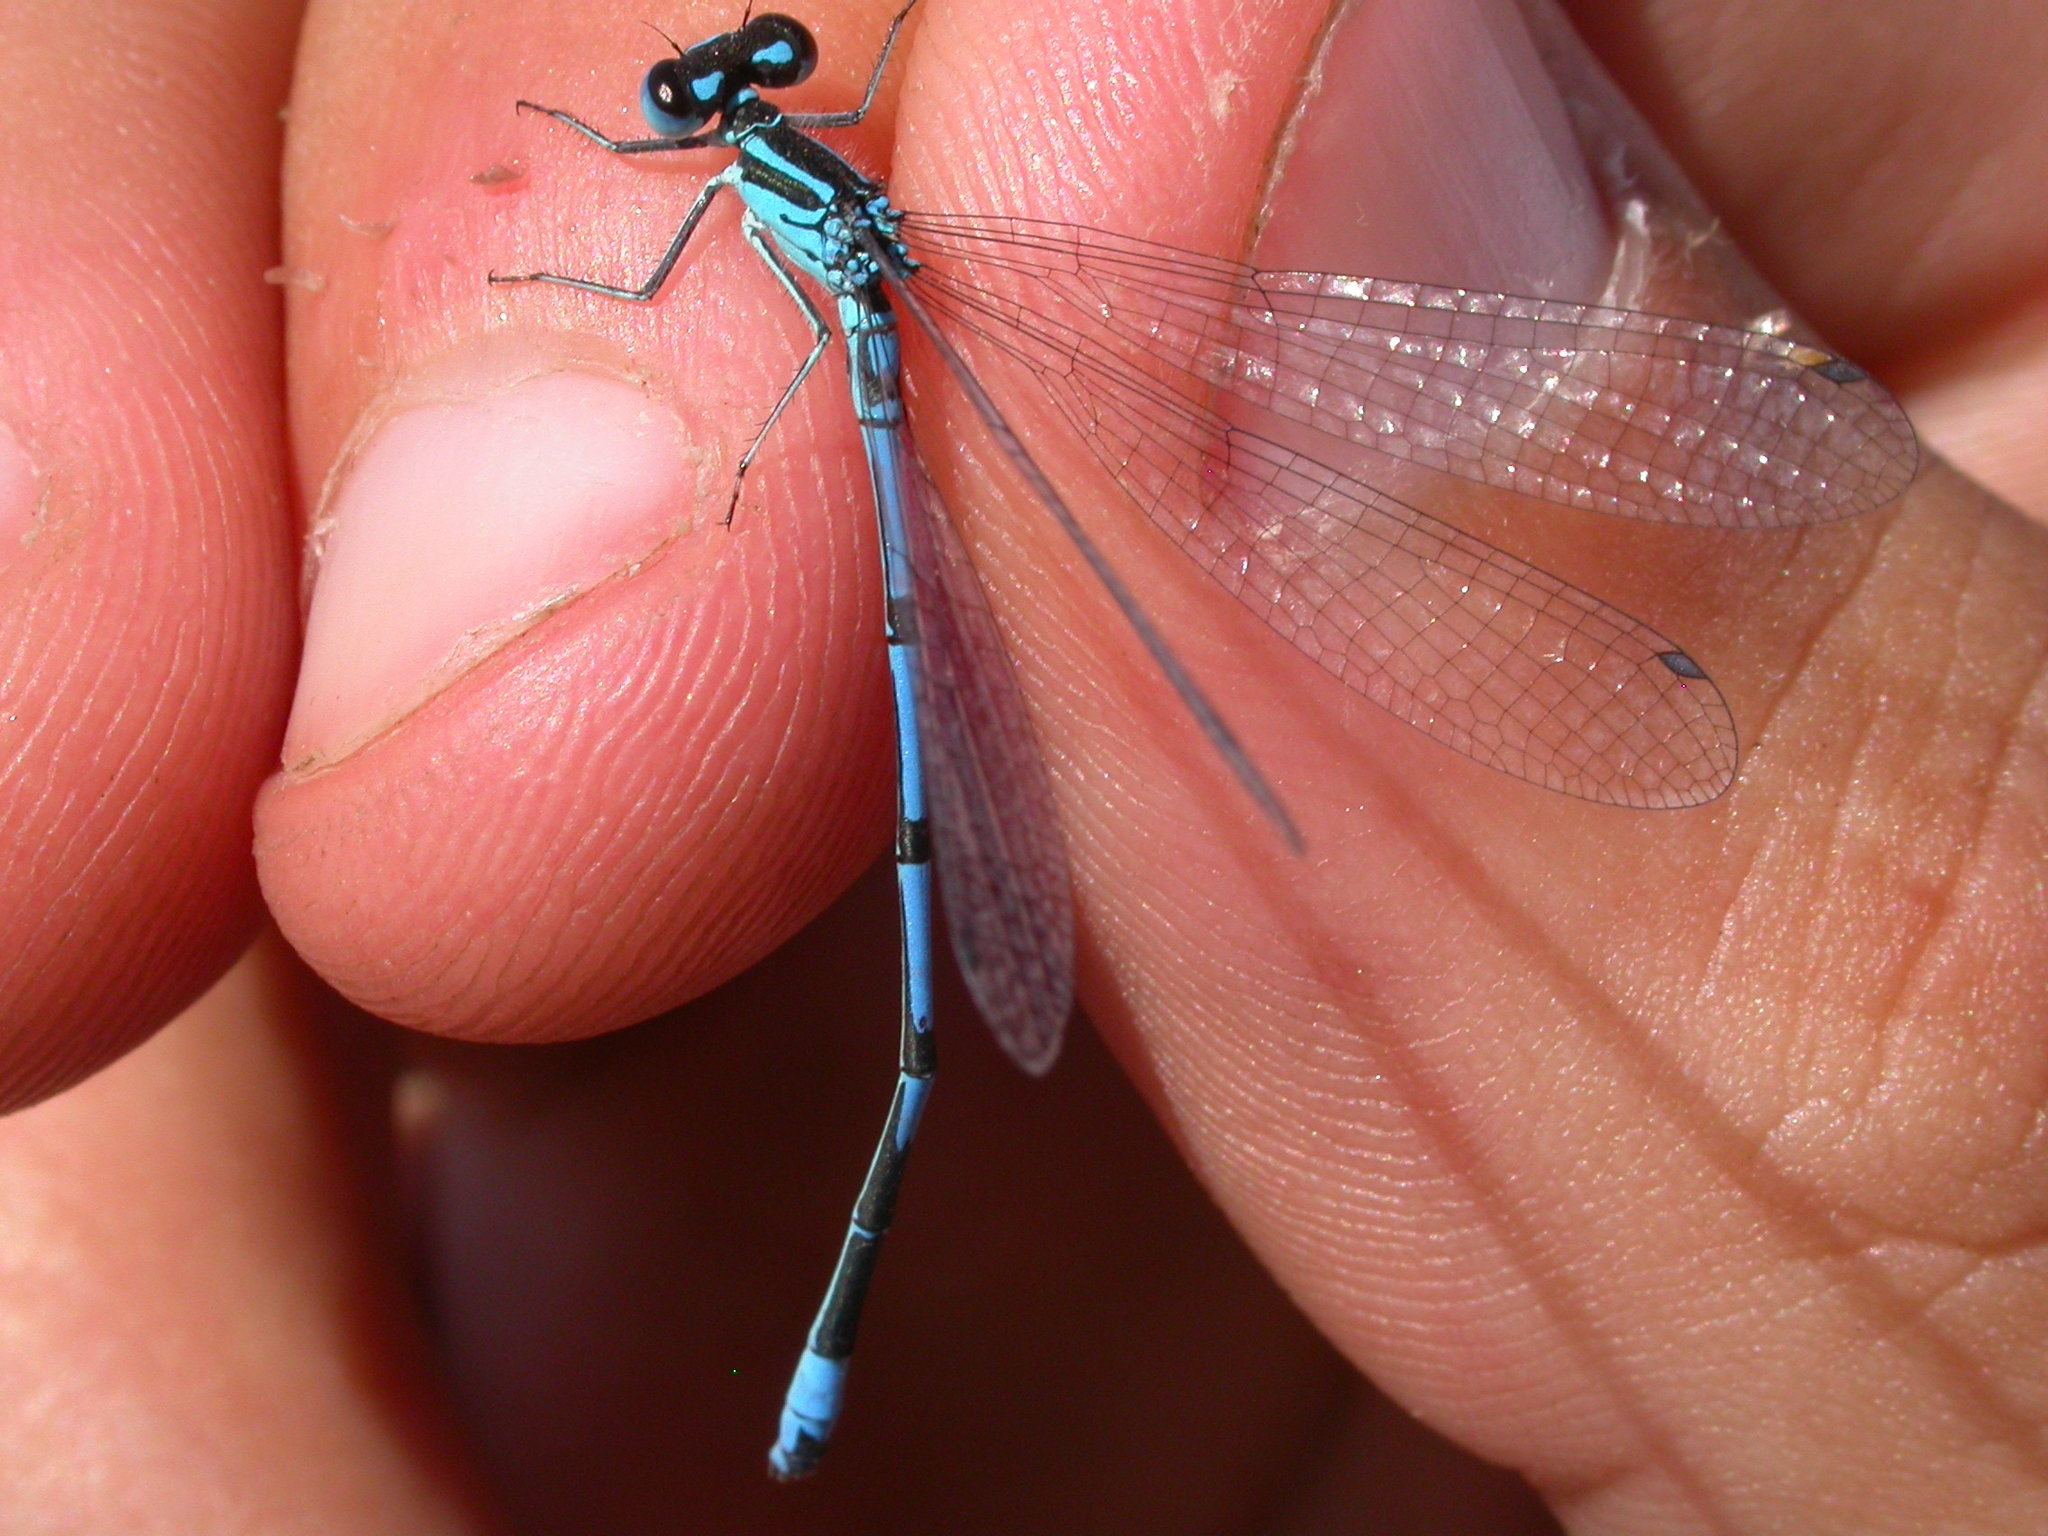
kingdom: Animalia
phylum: Arthropoda
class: Insecta
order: Odonata
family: Coenagrionidae
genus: Coenagrion
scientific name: Coenagrion puella
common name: Azure damselfly
